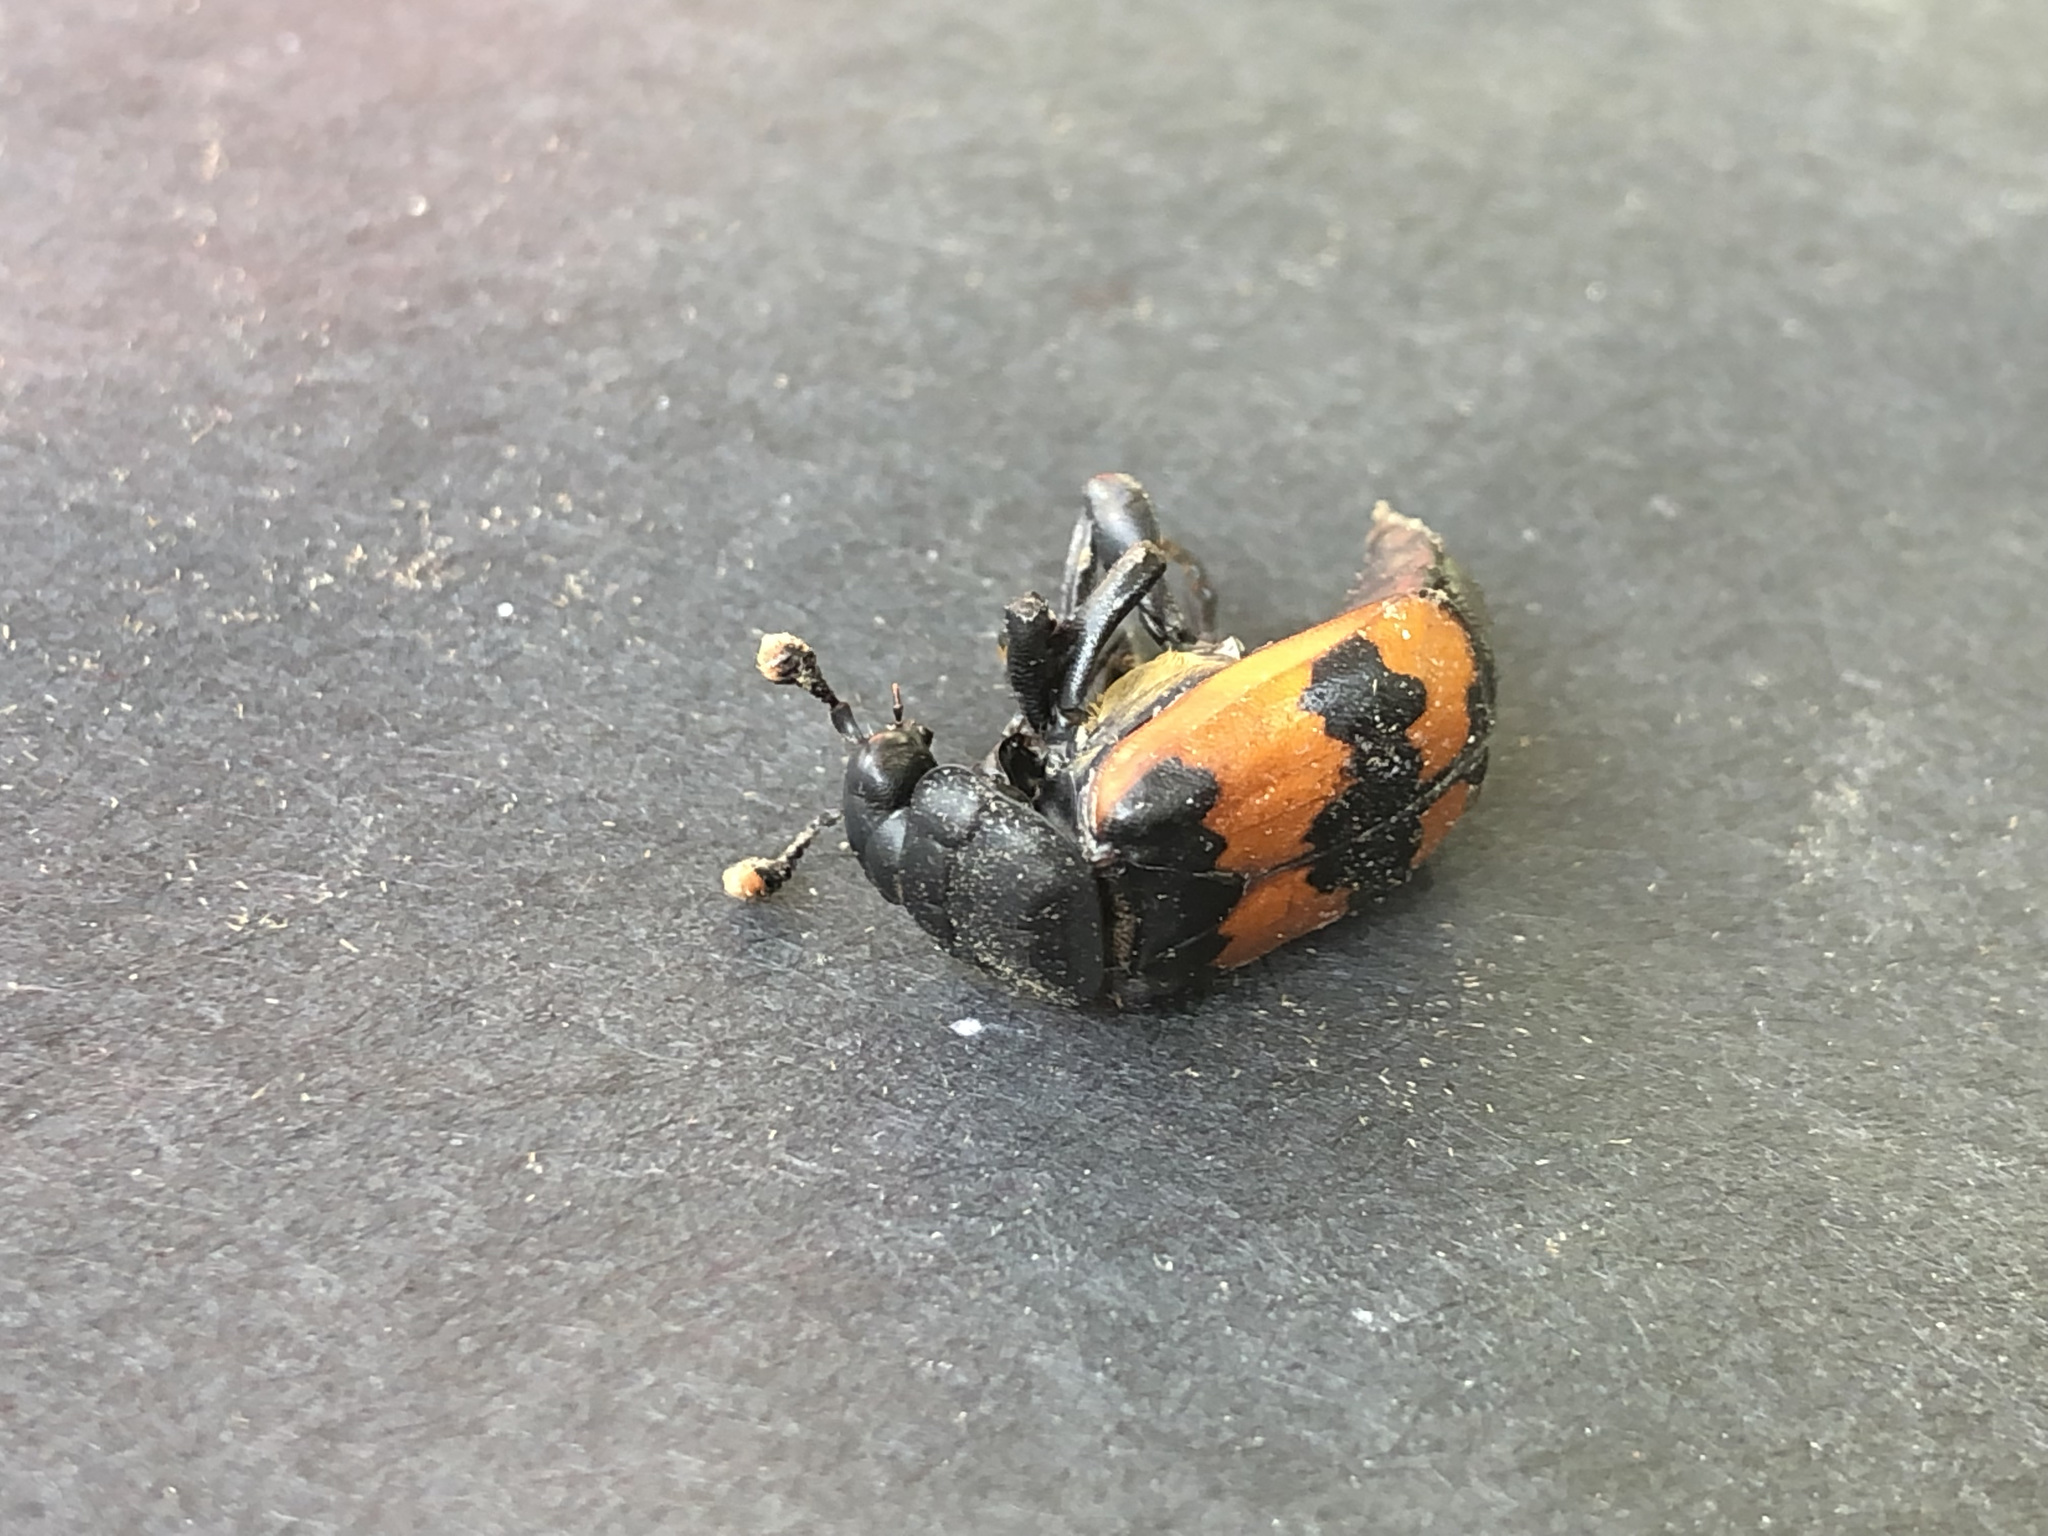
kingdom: Animalia
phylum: Arthropoda
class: Insecta
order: Coleoptera
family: Staphylinidae
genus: Nicrophorus
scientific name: Nicrophorus investigator
